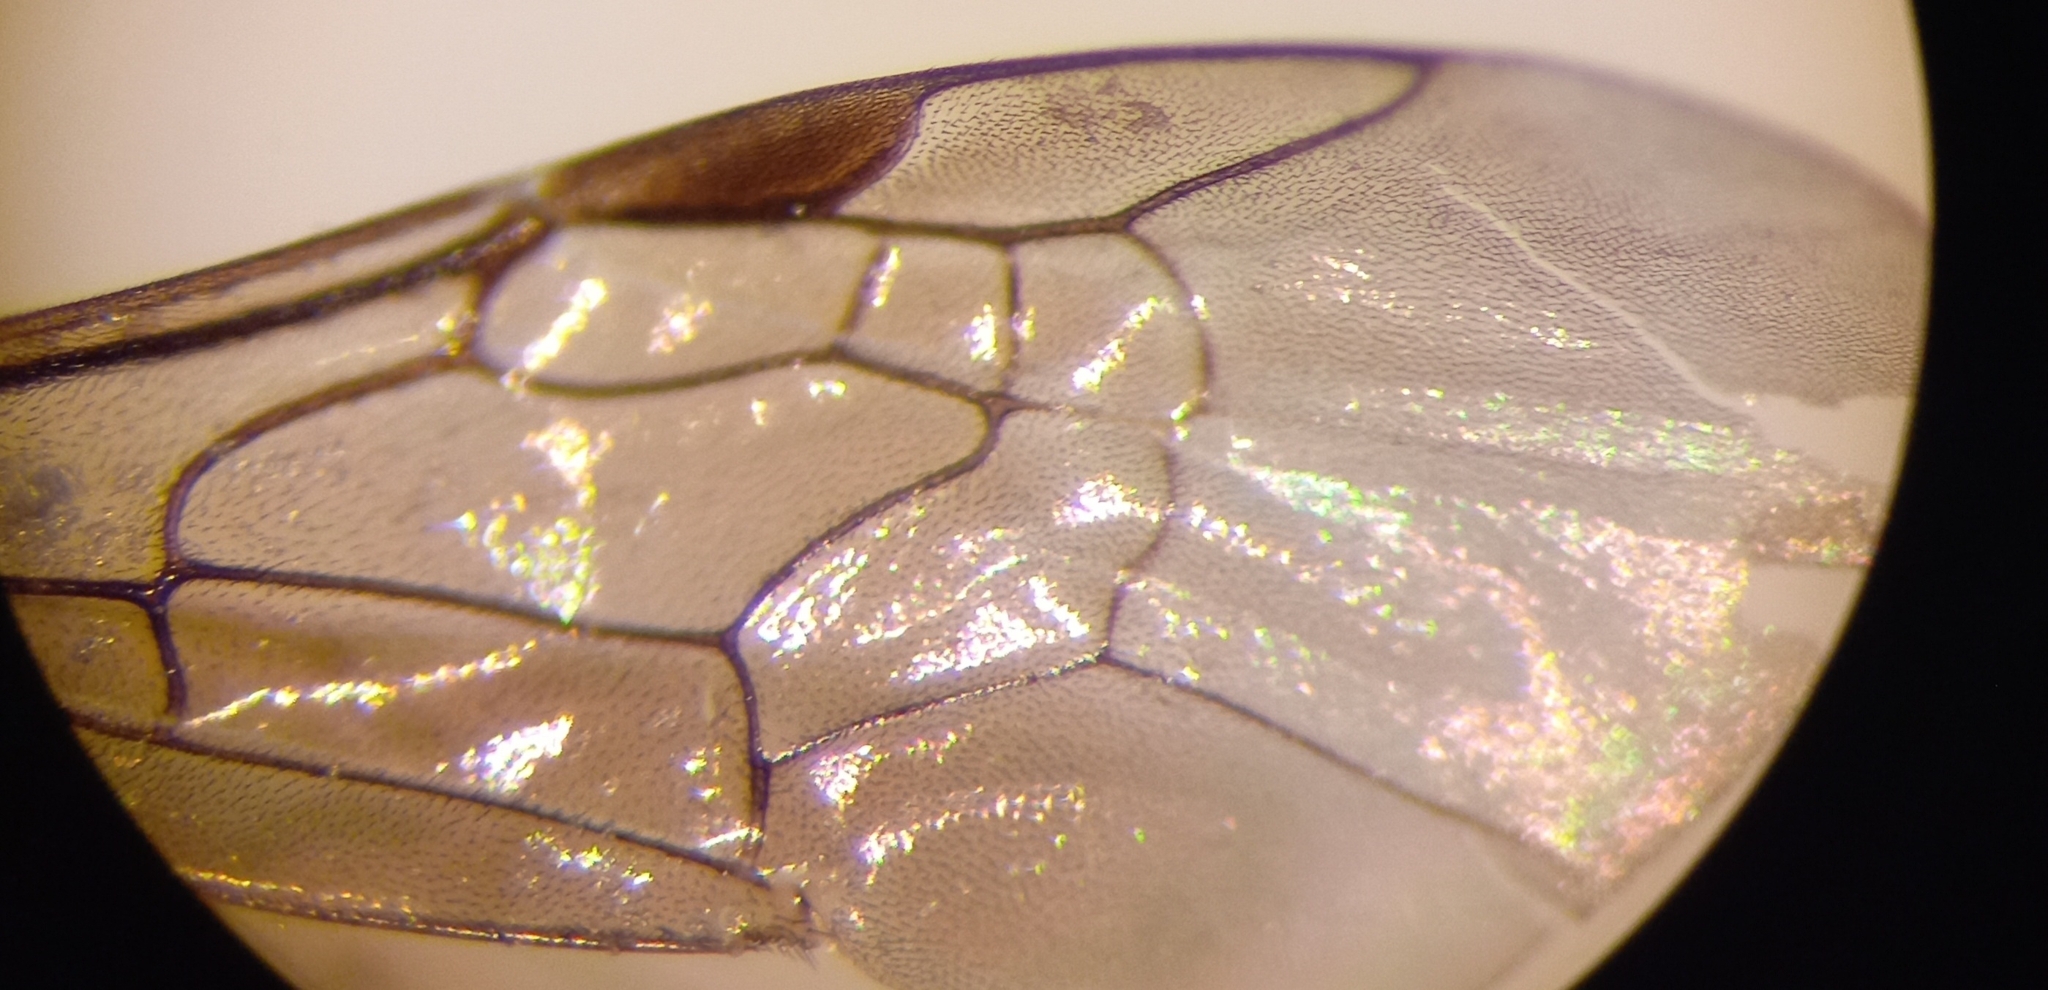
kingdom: Animalia
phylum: Arthropoda
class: Insecta
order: Hymenoptera
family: Halictidae
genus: Lasioglossum
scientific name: Lasioglossum interruptum
